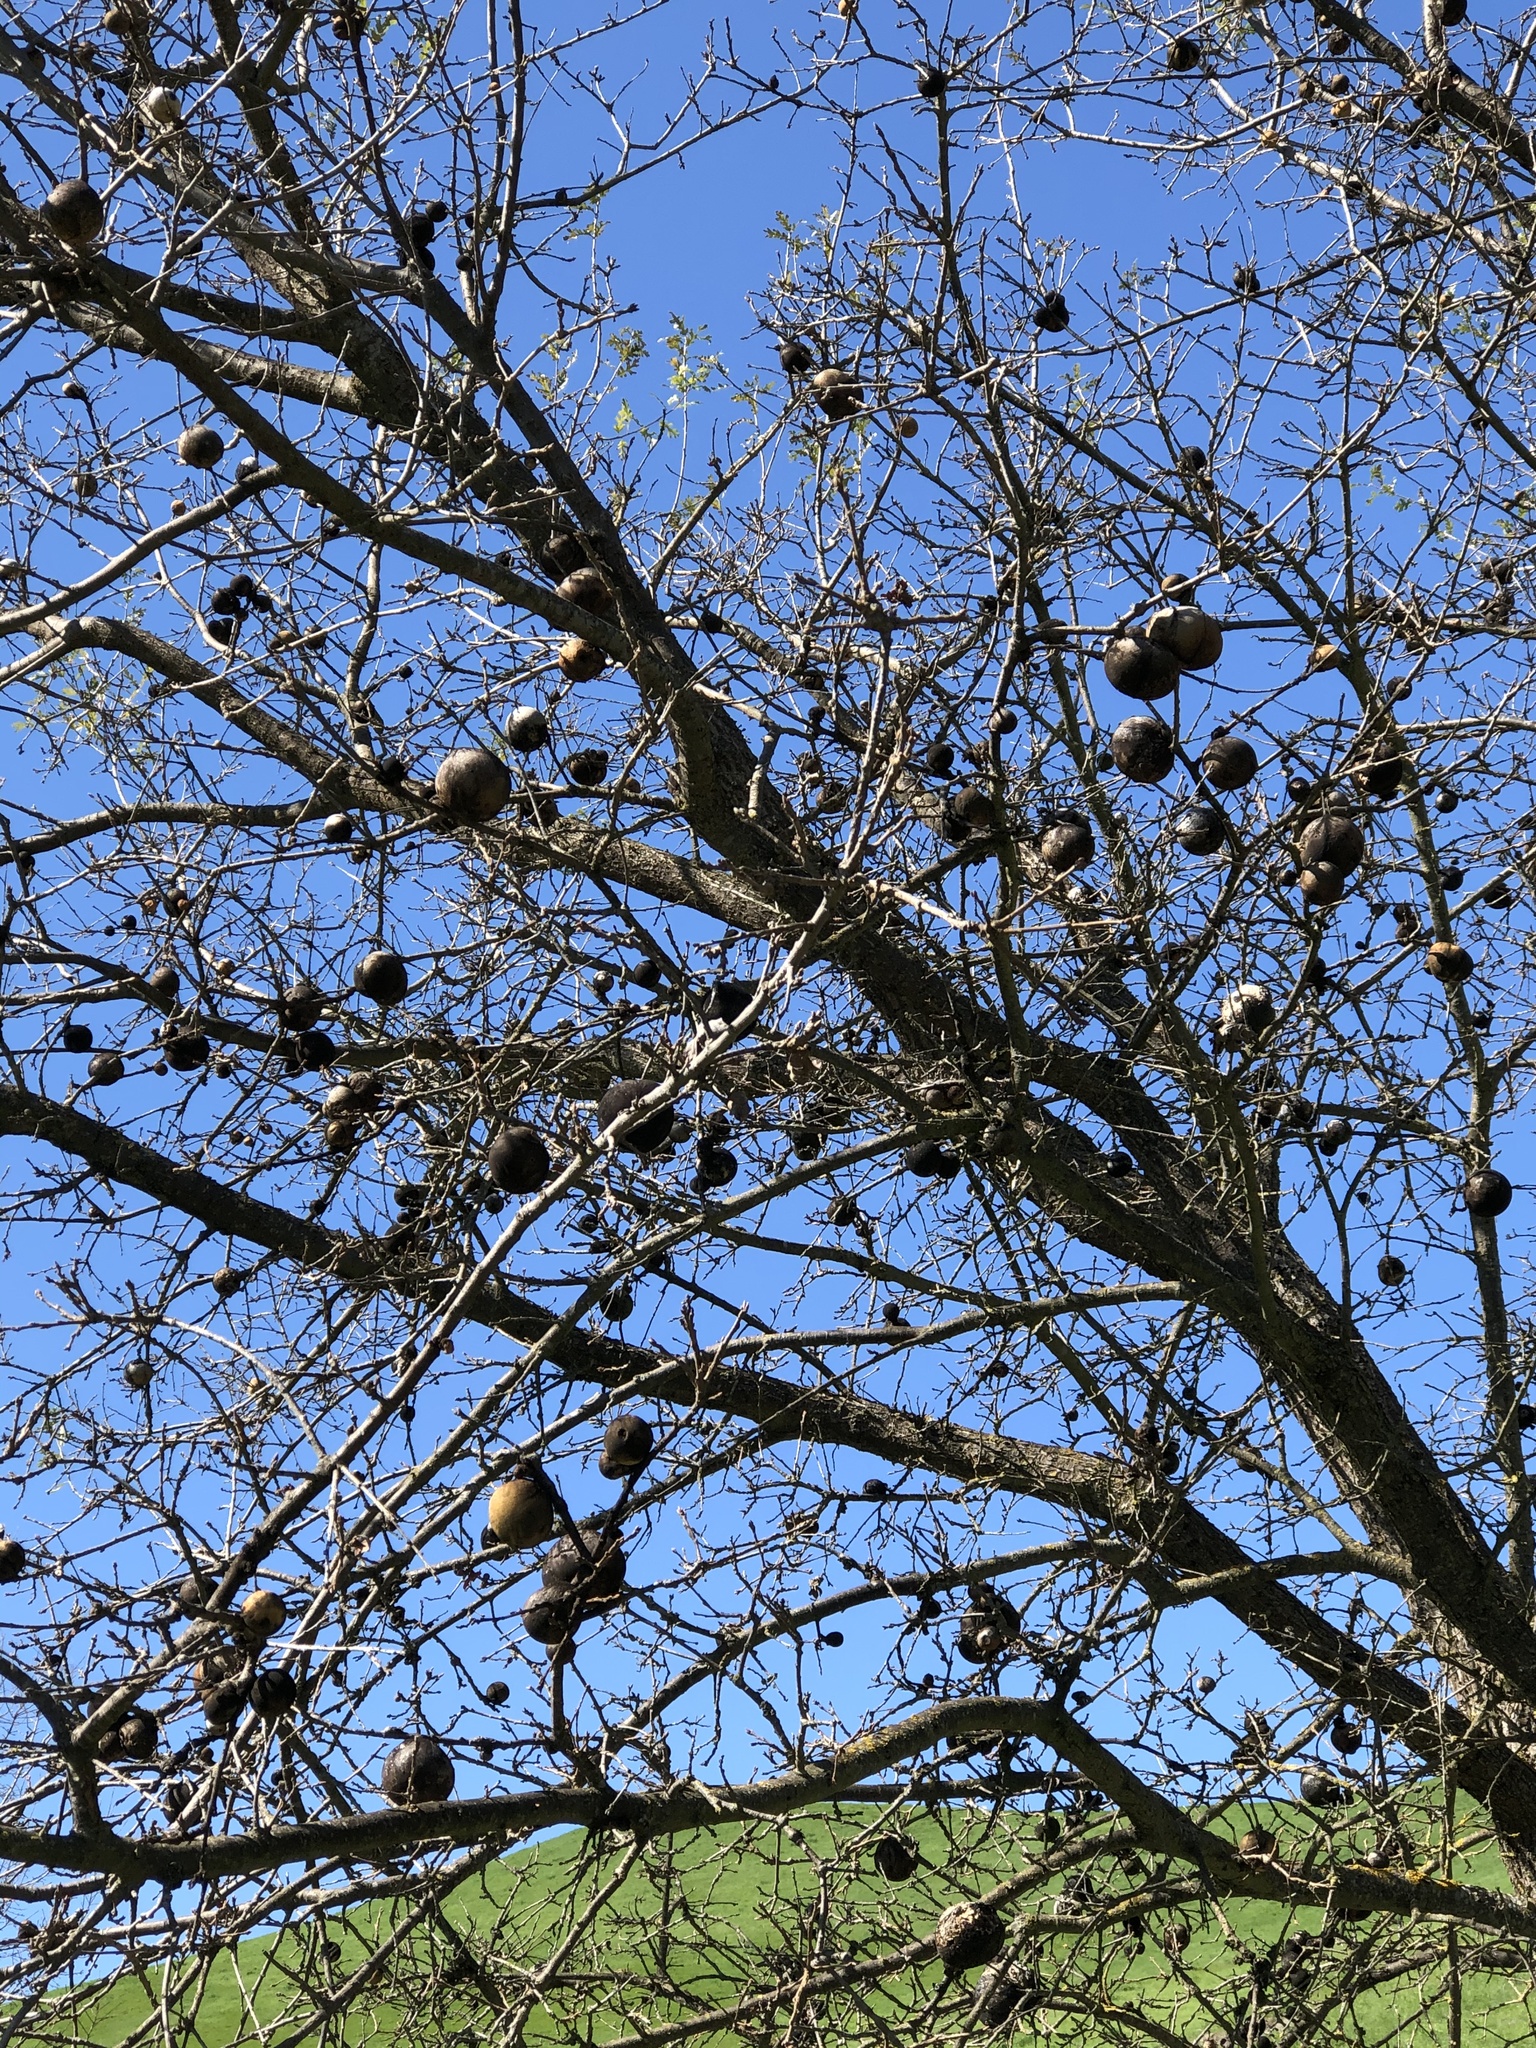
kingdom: Animalia
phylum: Arthropoda
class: Insecta
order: Hymenoptera
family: Cynipidae
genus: Andricus
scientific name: Andricus quercuscalifornicus
